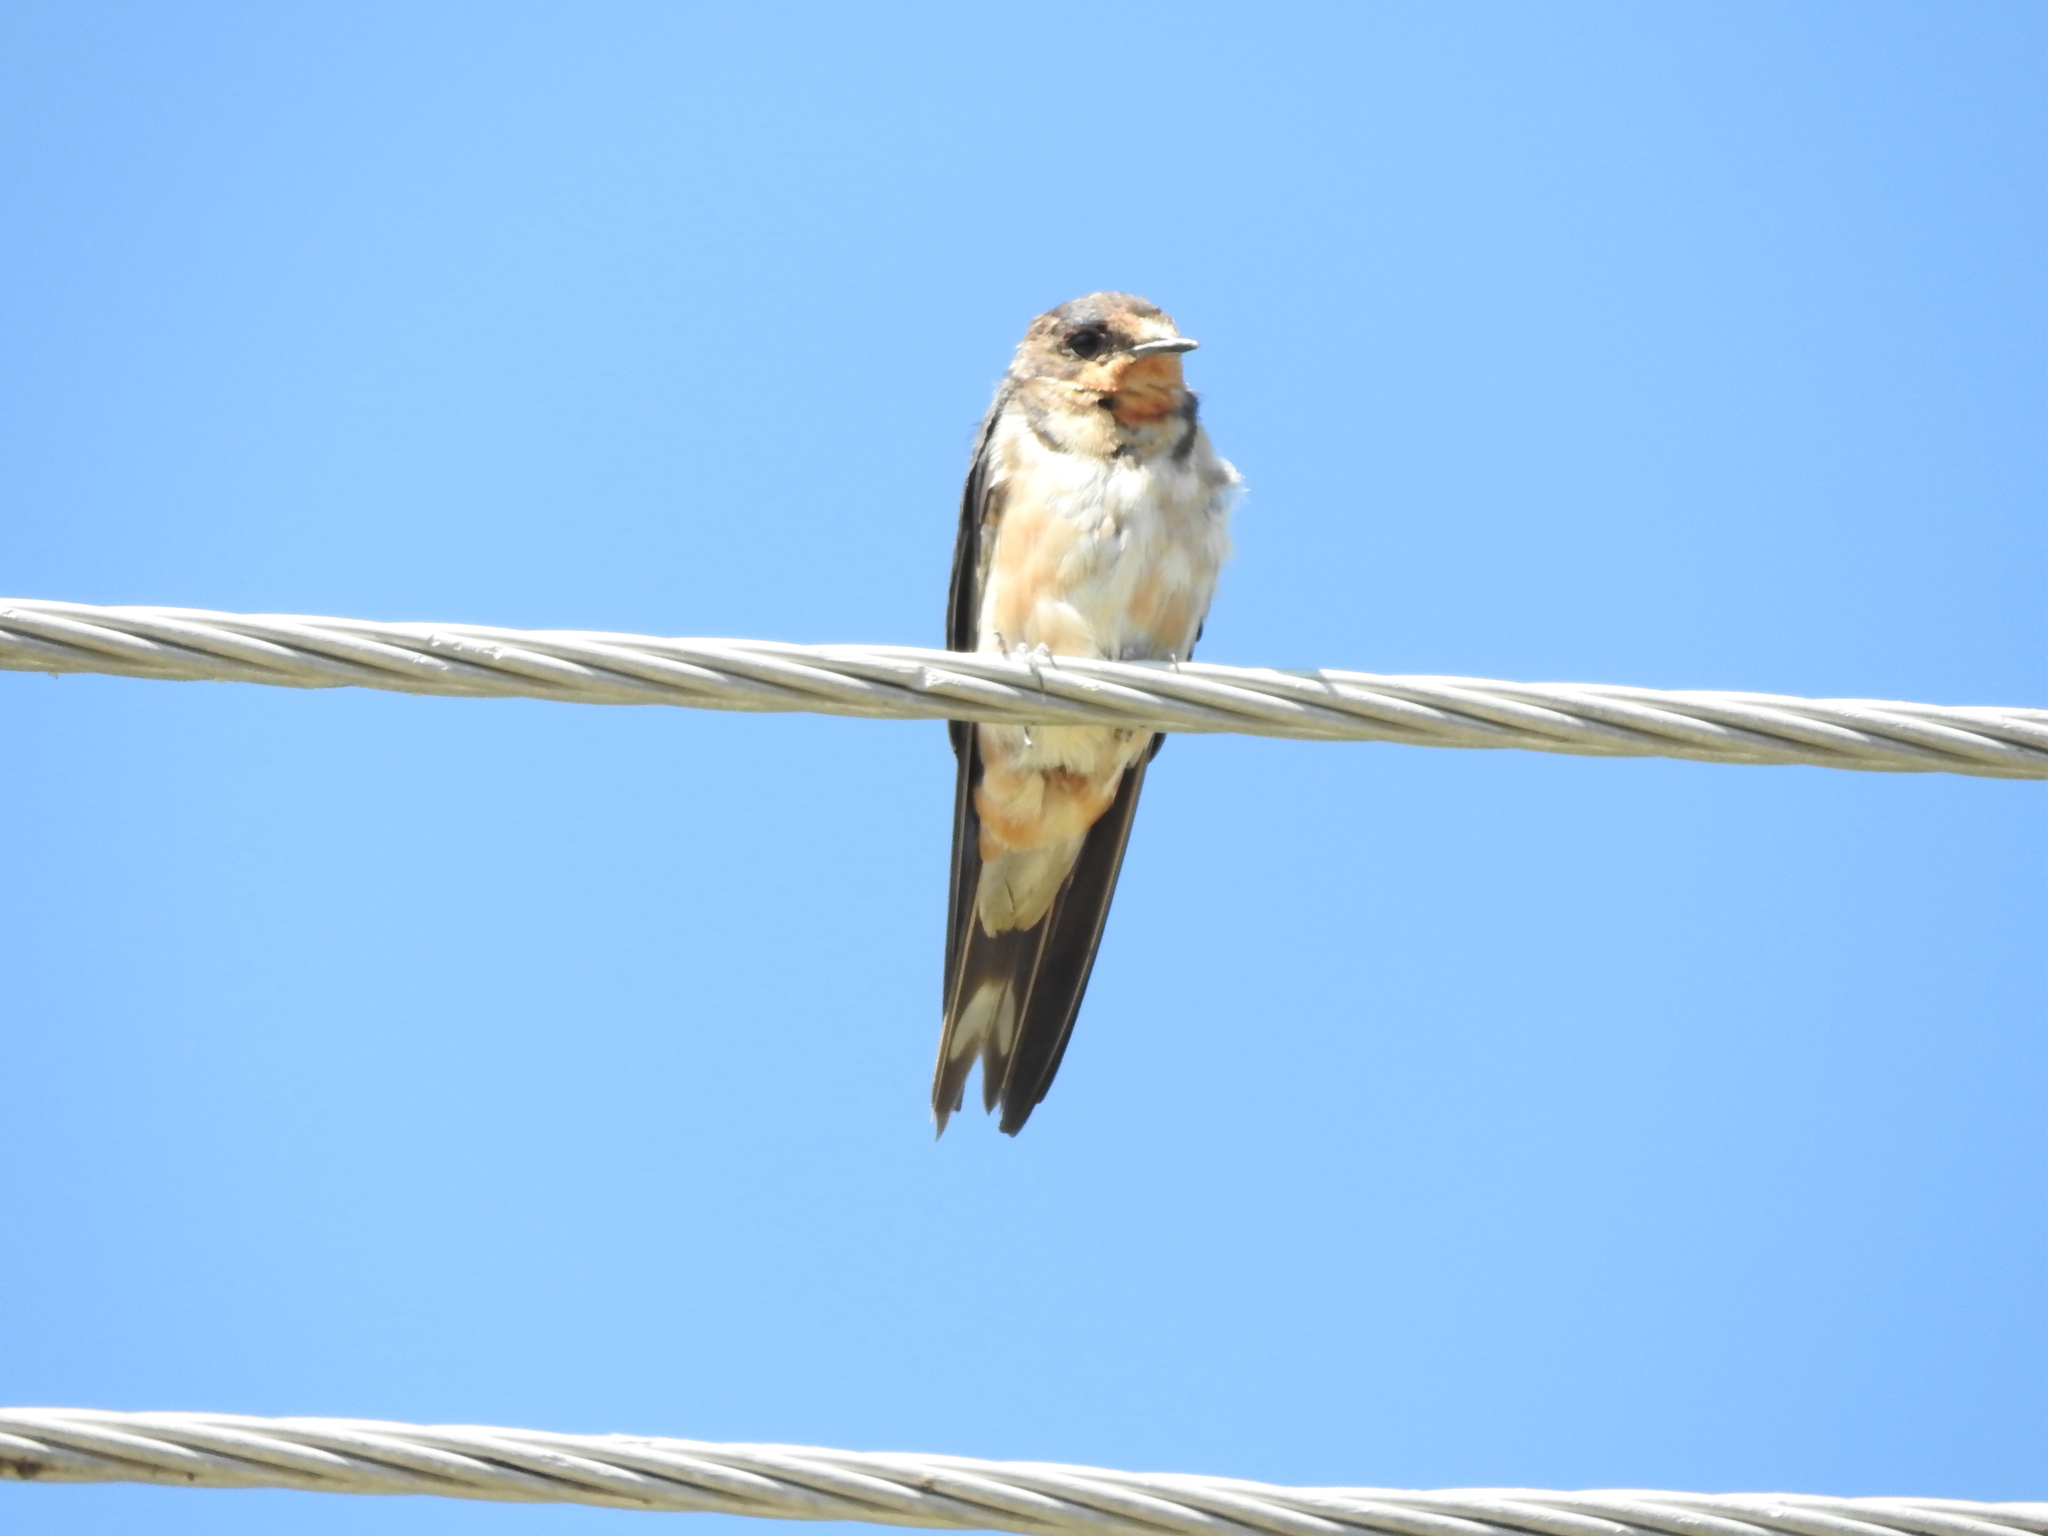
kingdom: Animalia
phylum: Chordata
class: Aves
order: Passeriformes
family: Hirundinidae
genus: Hirundo
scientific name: Hirundo rustica
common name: Barn swallow
